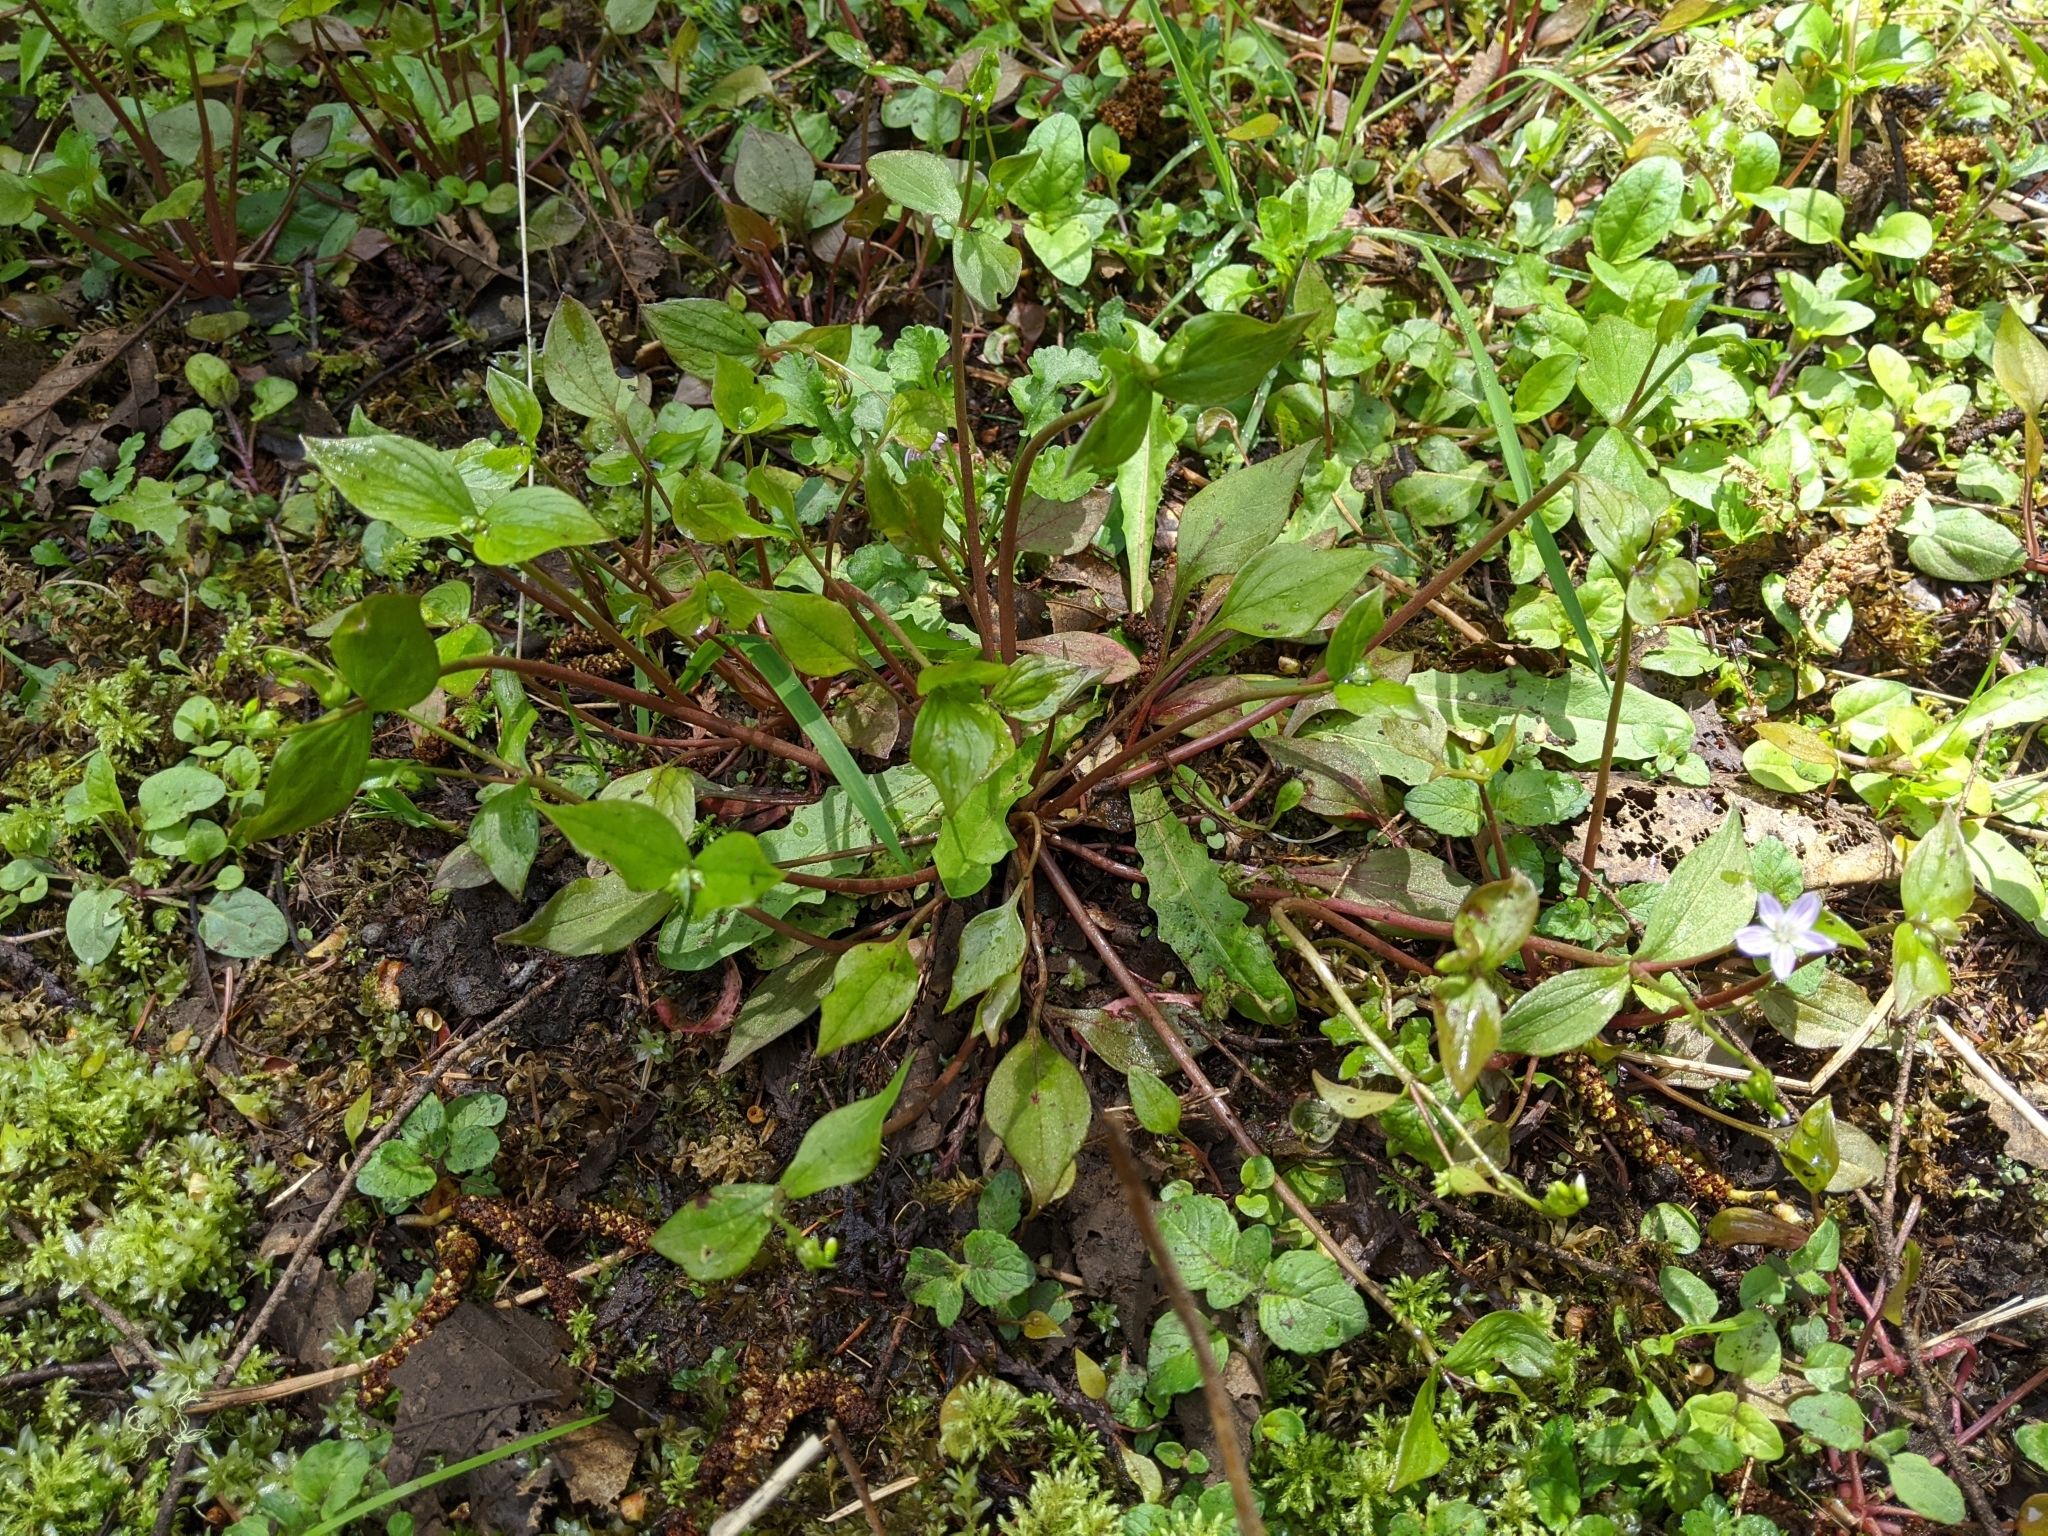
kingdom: Plantae
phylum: Tracheophyta
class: Magnoliopsida
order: Caryophyllales
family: Montiaceae
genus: Claytonia
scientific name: Claytonia sibirica
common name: Pink purslane
